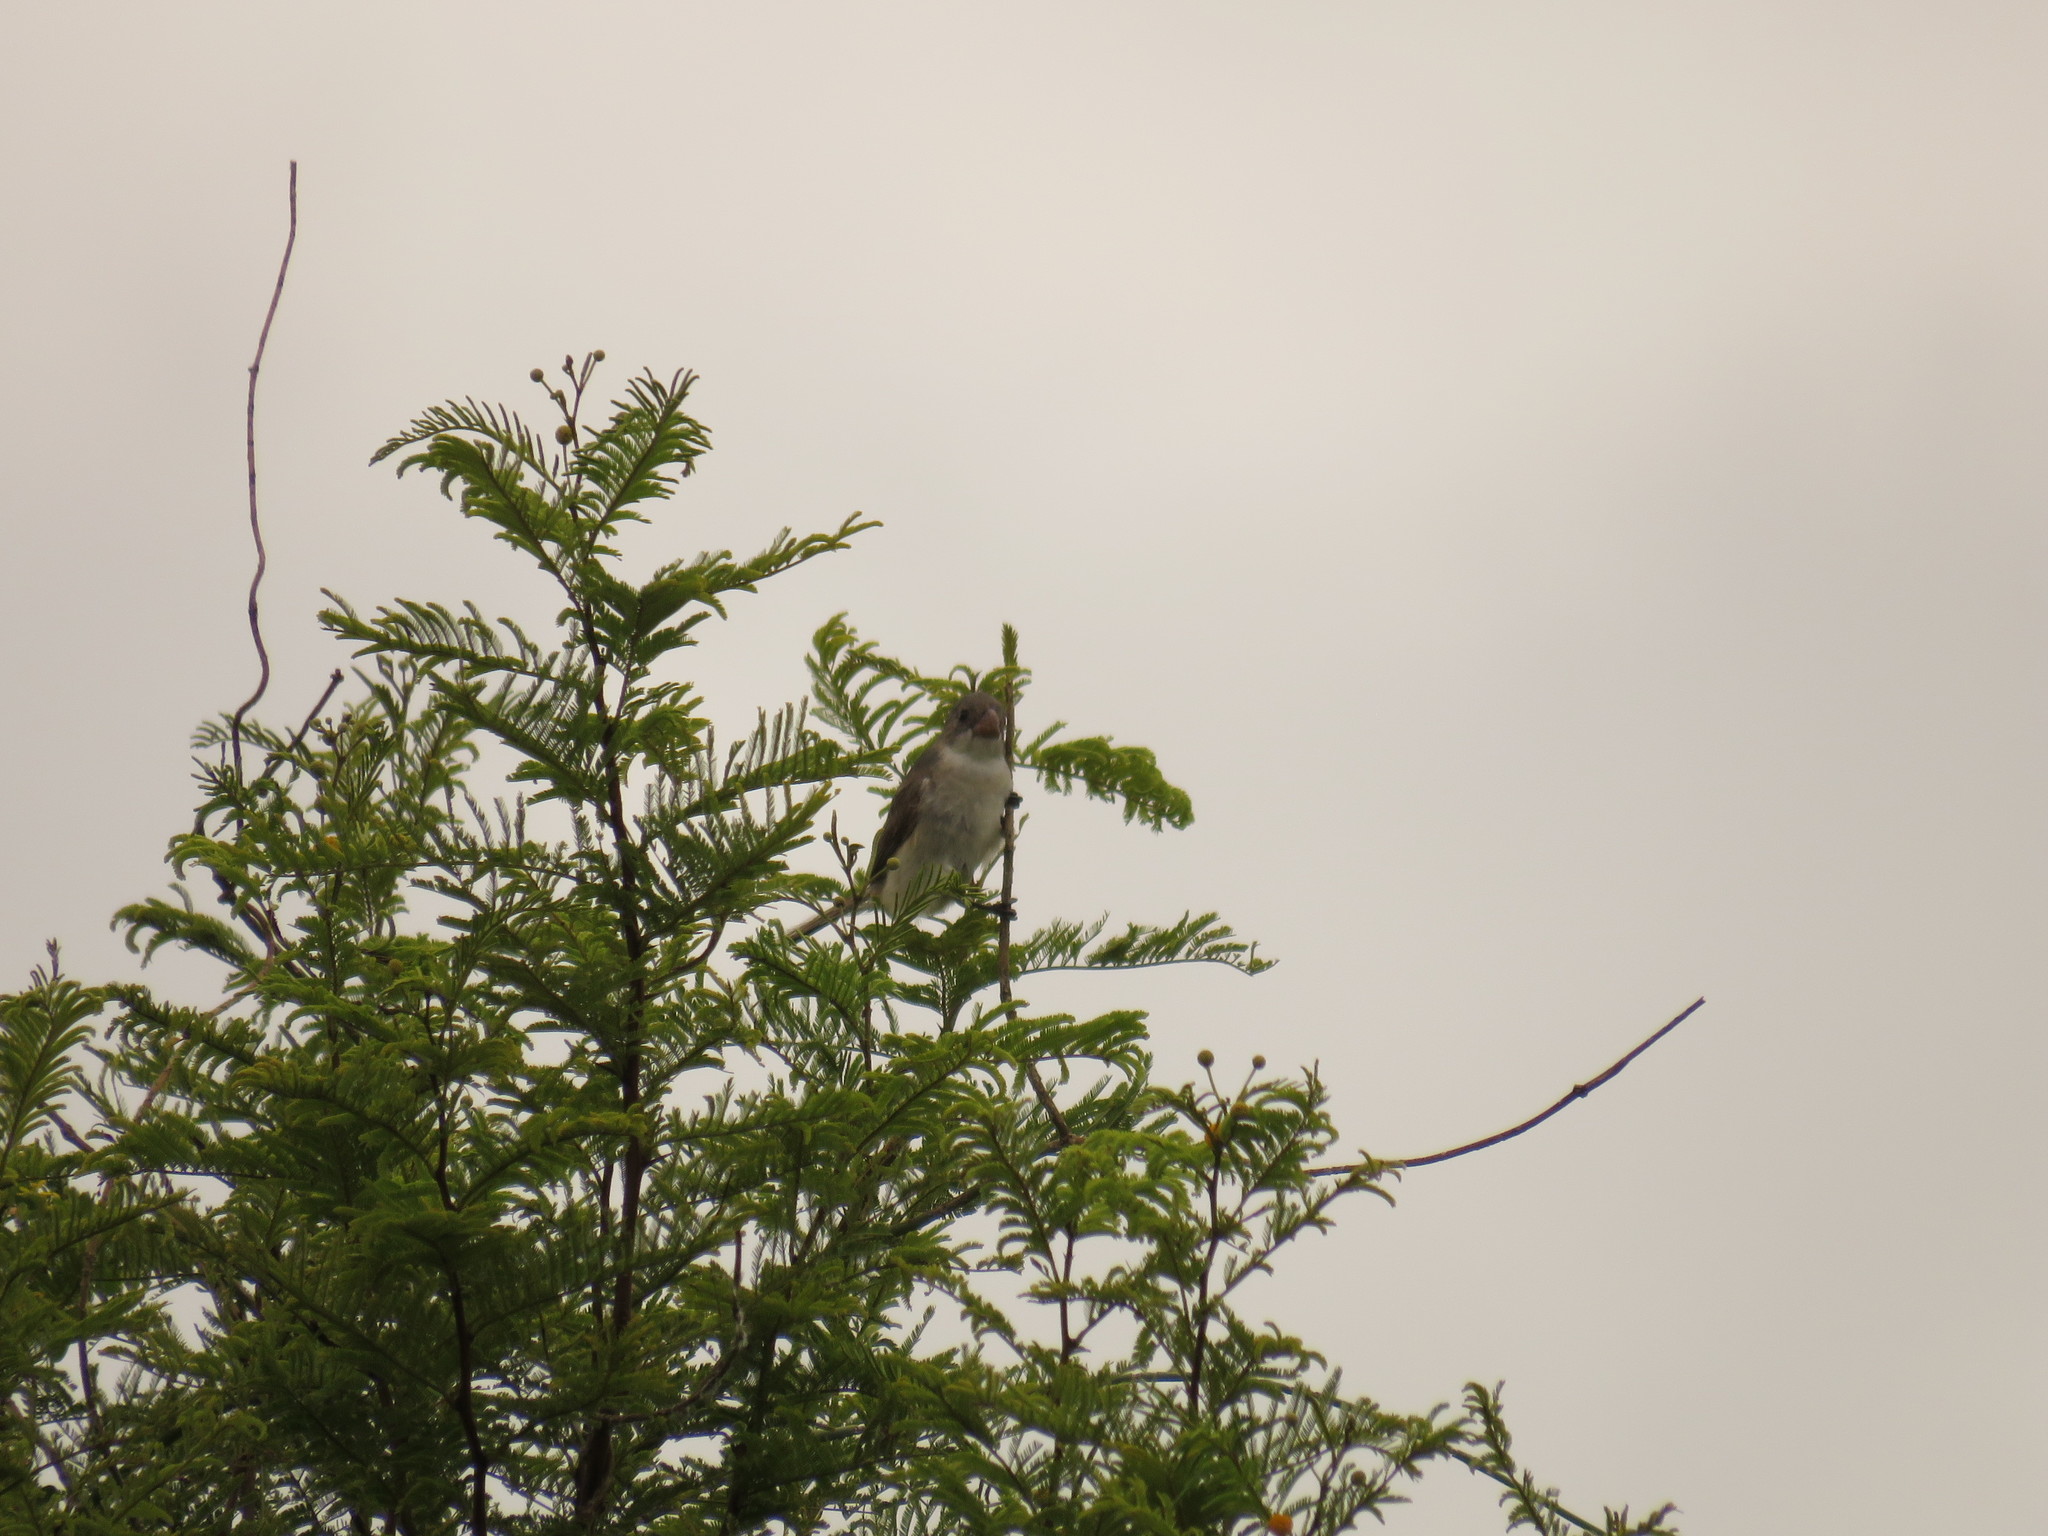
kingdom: Animalia
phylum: Chordata
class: Aves
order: Passeriformes
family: Thraupidae
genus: Sporophila
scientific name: Sporophila leucoptera
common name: White-bellied seedeater
